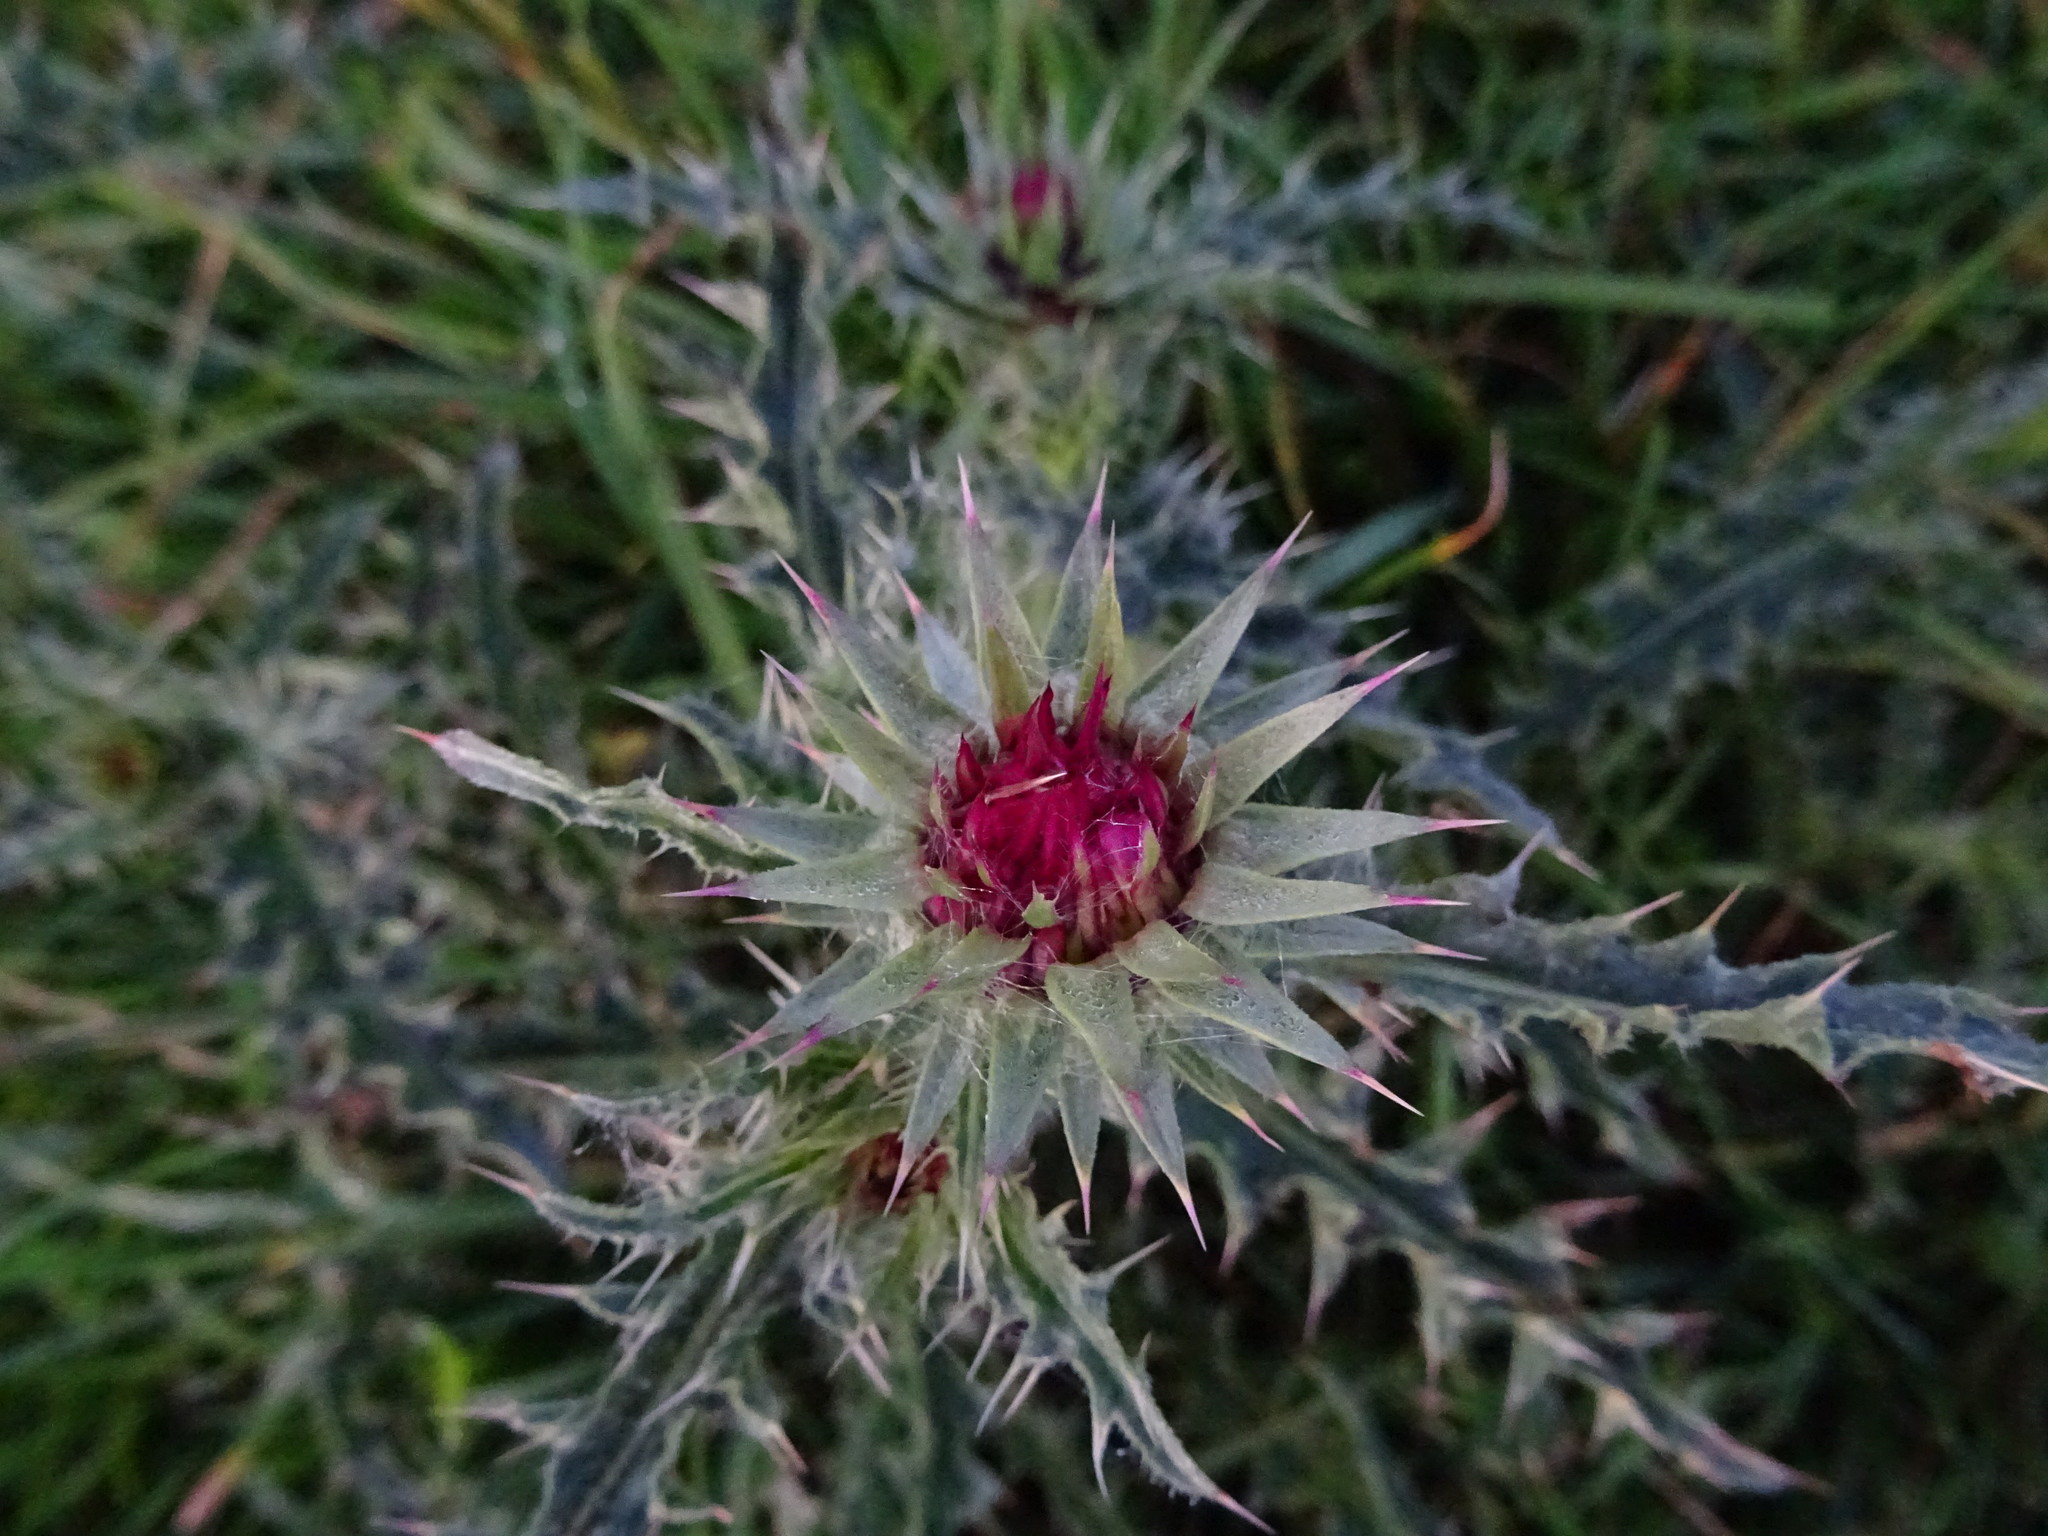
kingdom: Plantae
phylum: Tracheophyta
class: Magnoliopsida
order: Asterales
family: Asteraceae
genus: Carduus
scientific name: Carduus nutans
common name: Musk thistle
